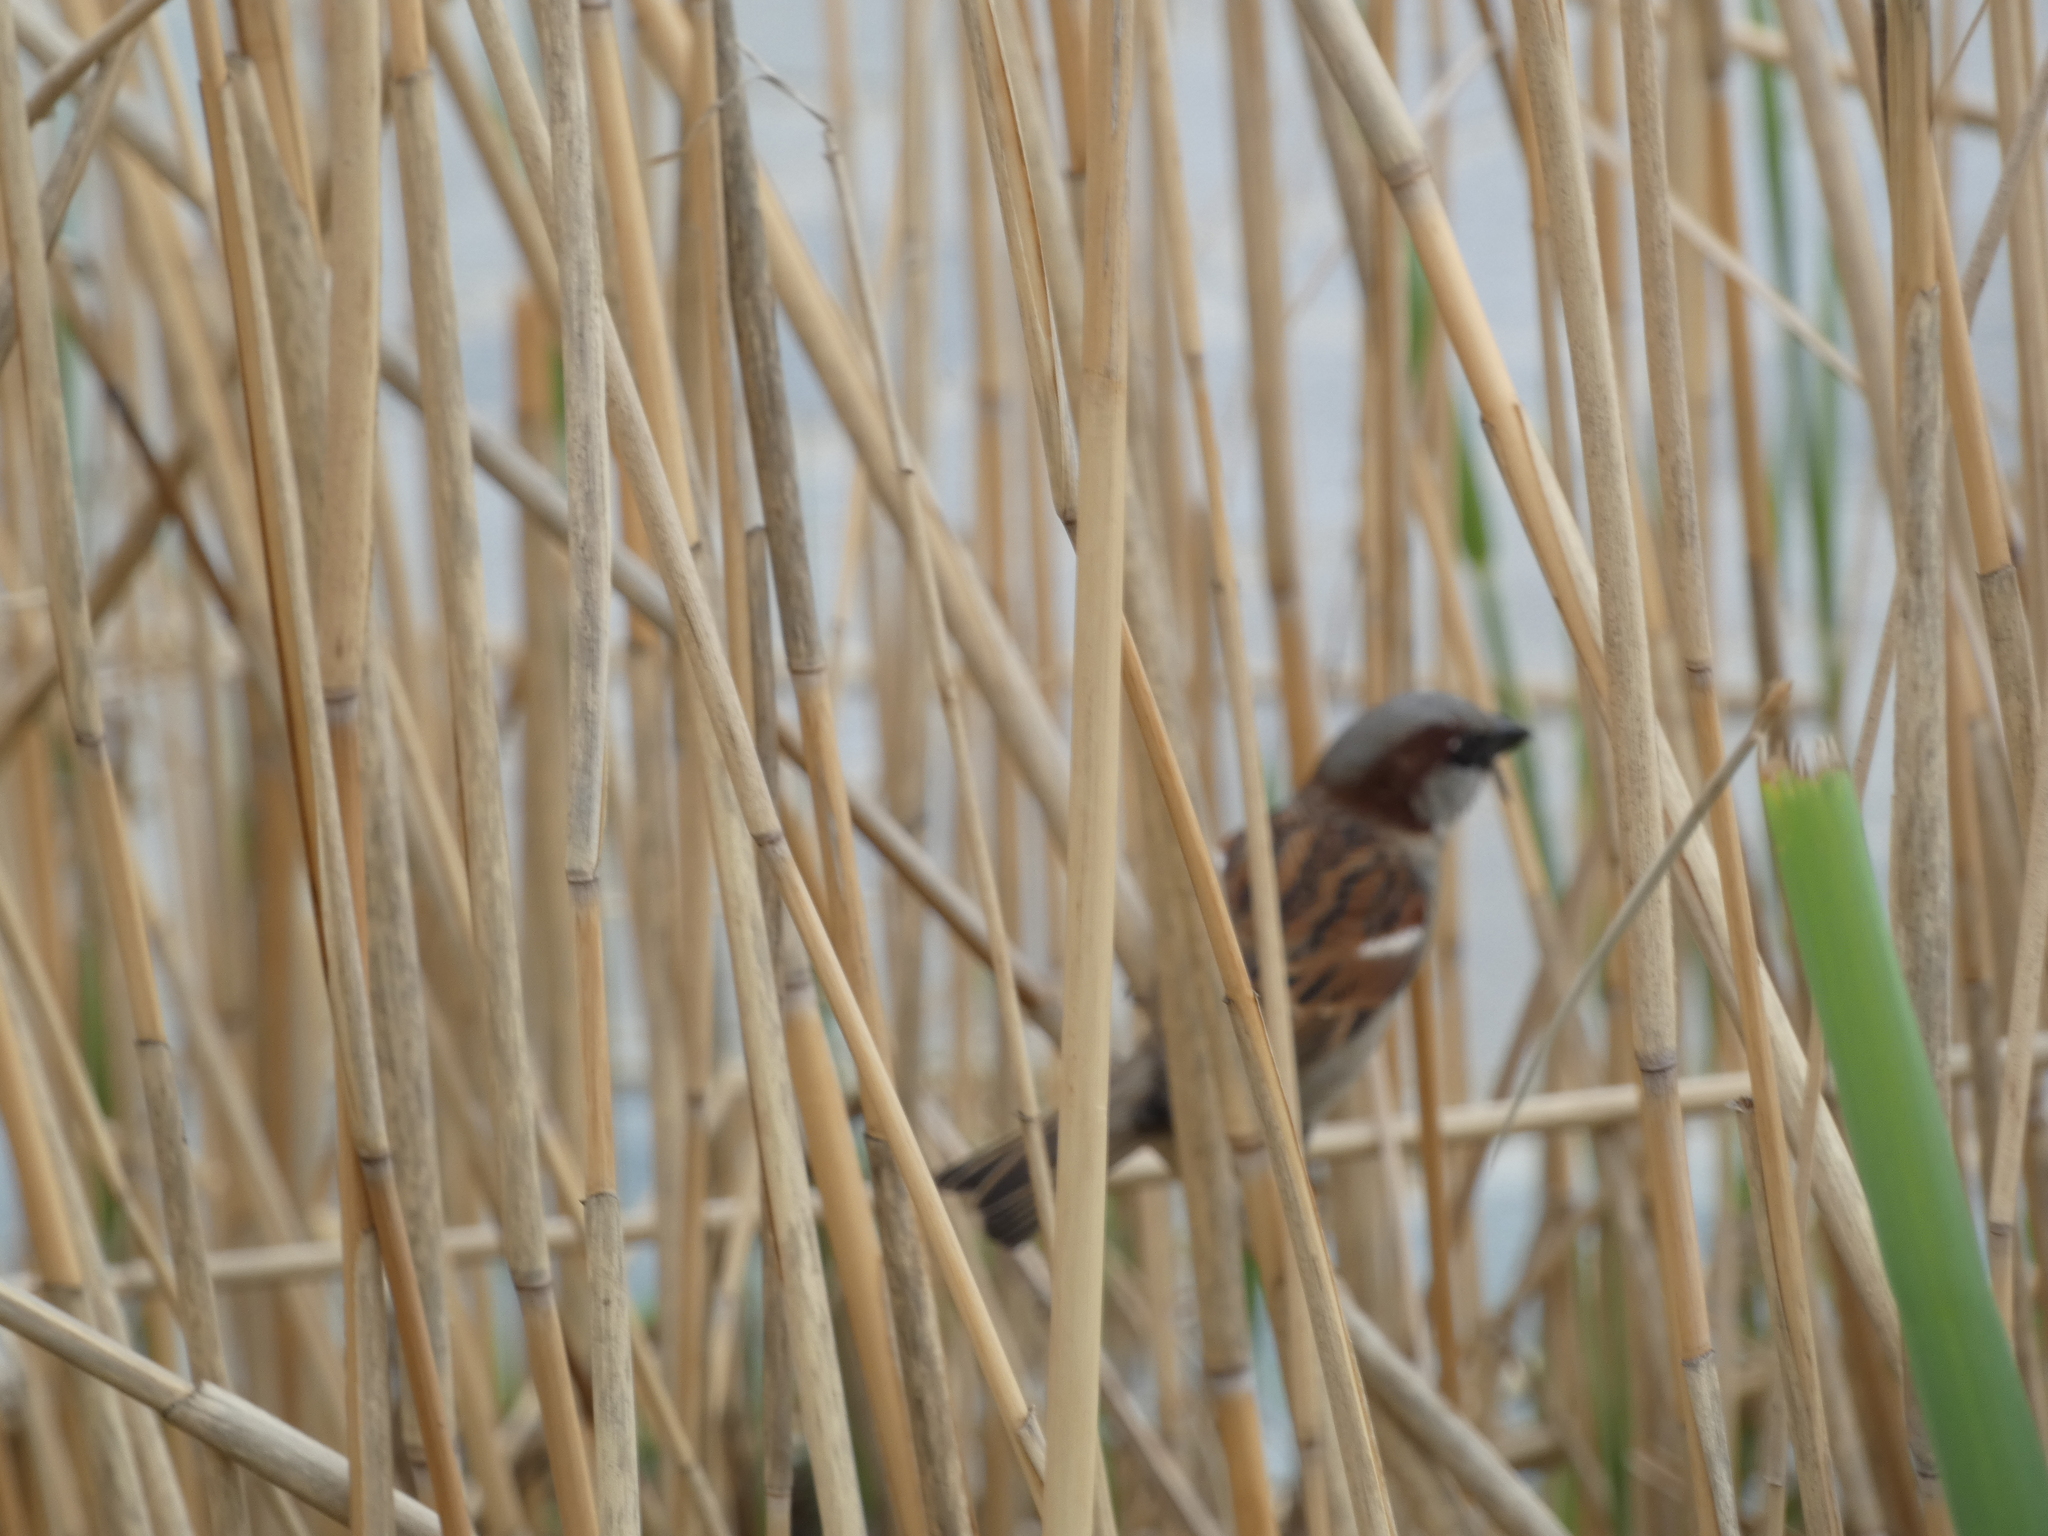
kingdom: Animalia
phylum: Chordata
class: Aves
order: Passeriformes
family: Passeridae
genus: Passer
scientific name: Passer domesticus
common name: House sparrow
